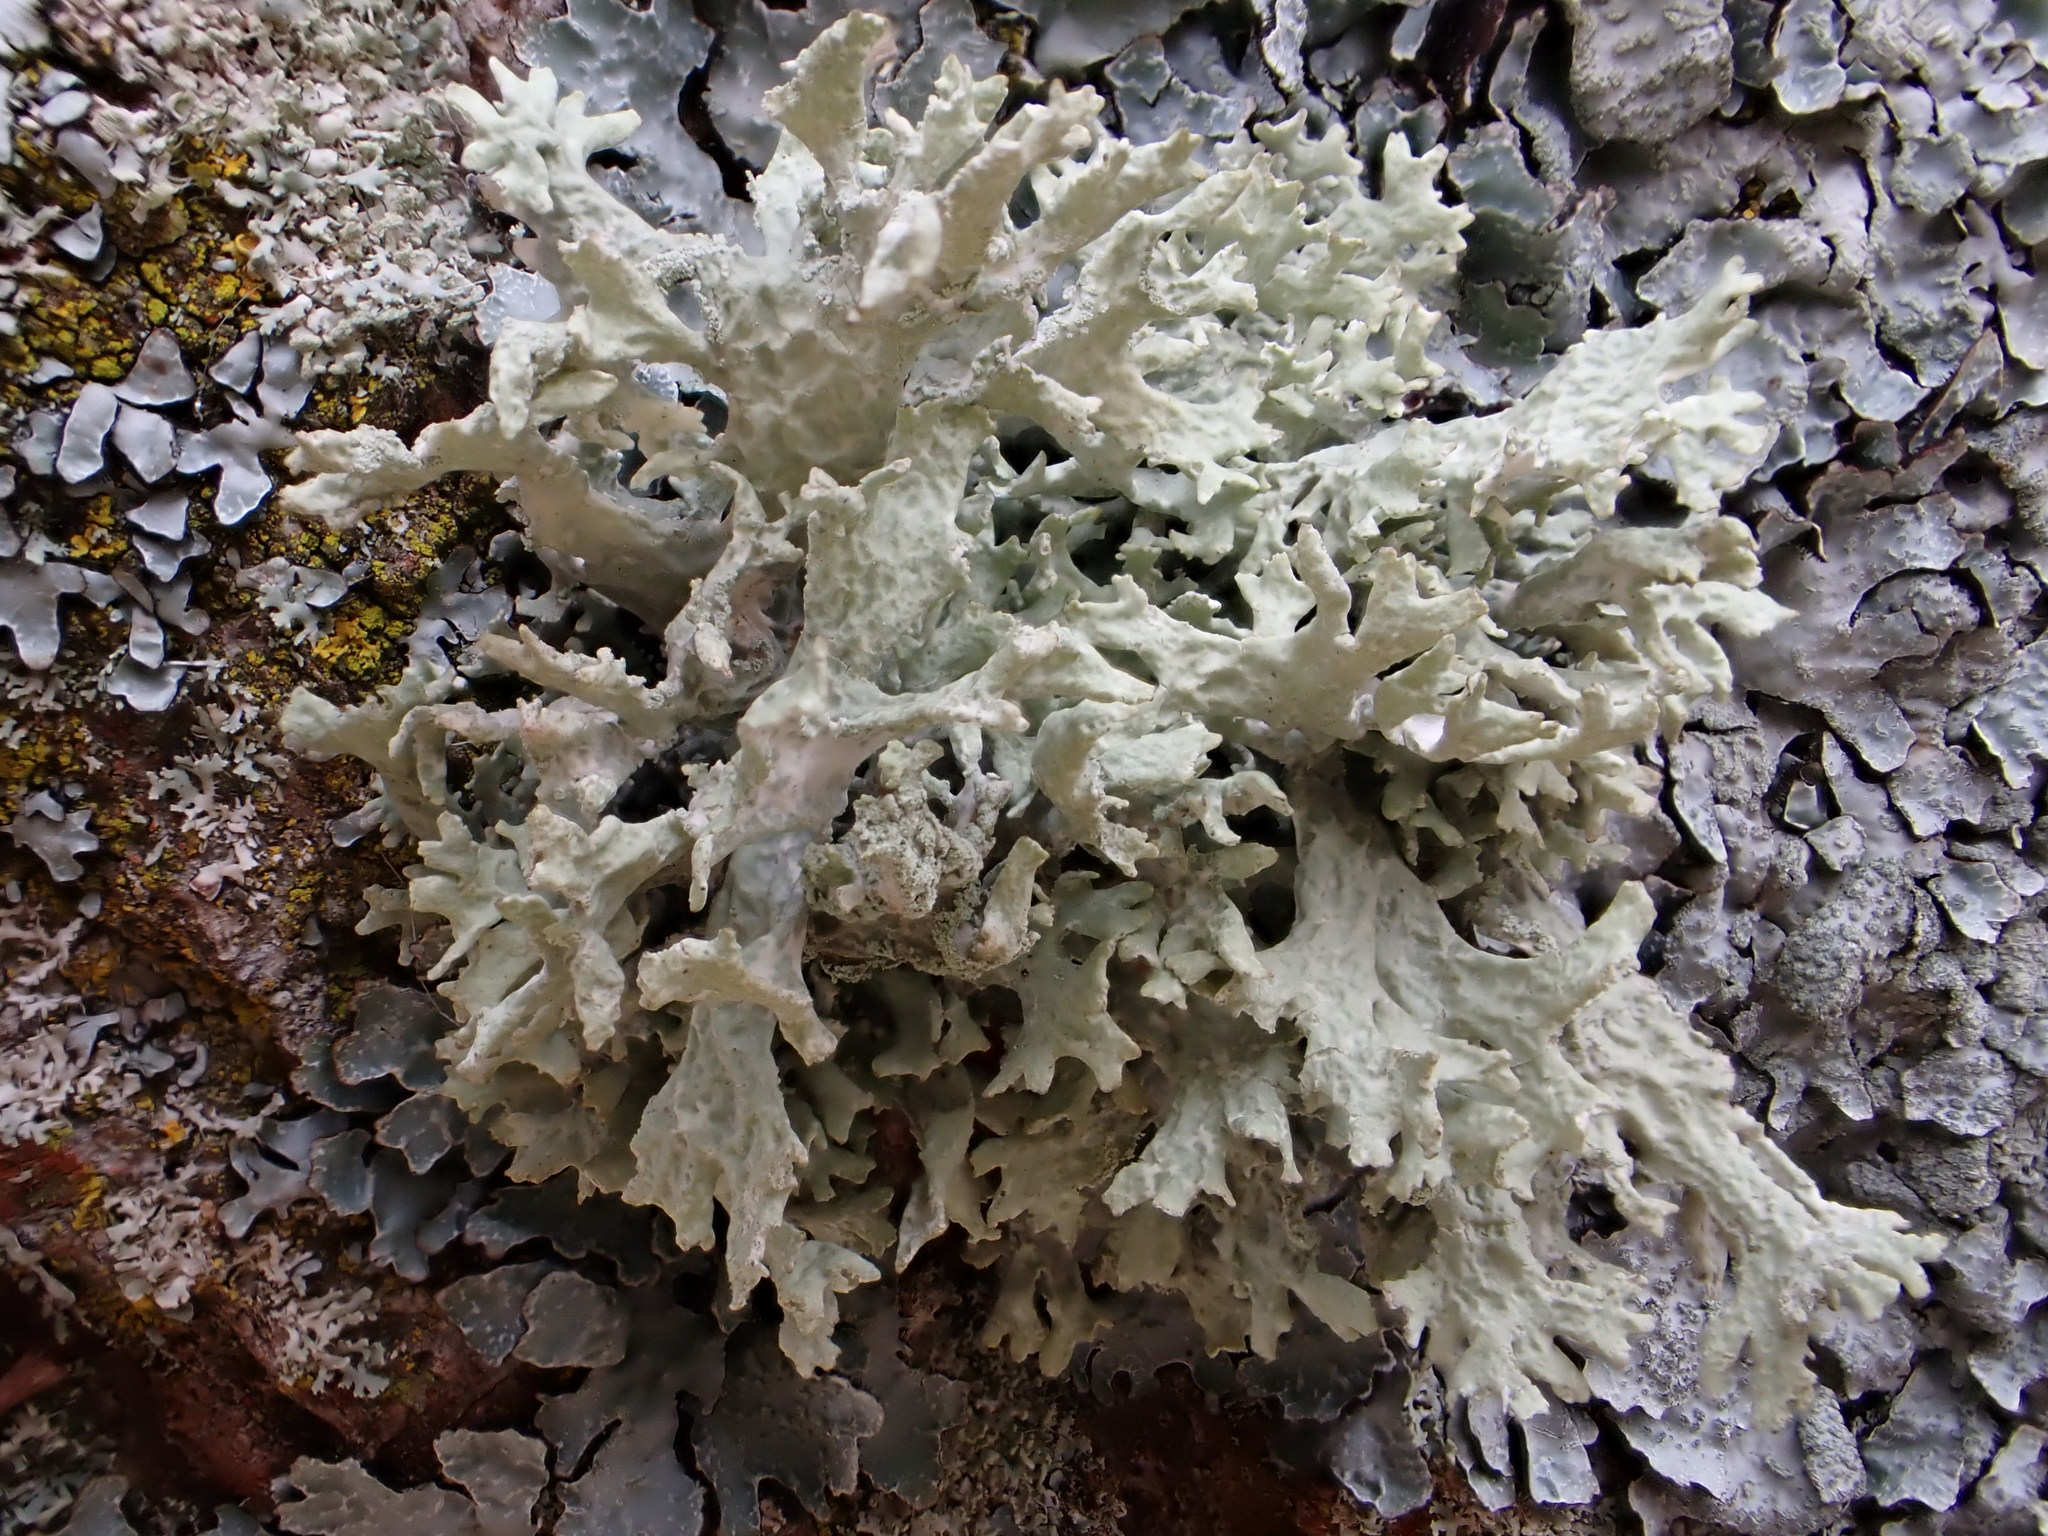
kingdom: Fungi
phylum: Ascomycota
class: Lecanoromycetes
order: Lecanorales
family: Parmeliaceae
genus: Evernia
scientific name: Evernia prunastri
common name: Oak moss
